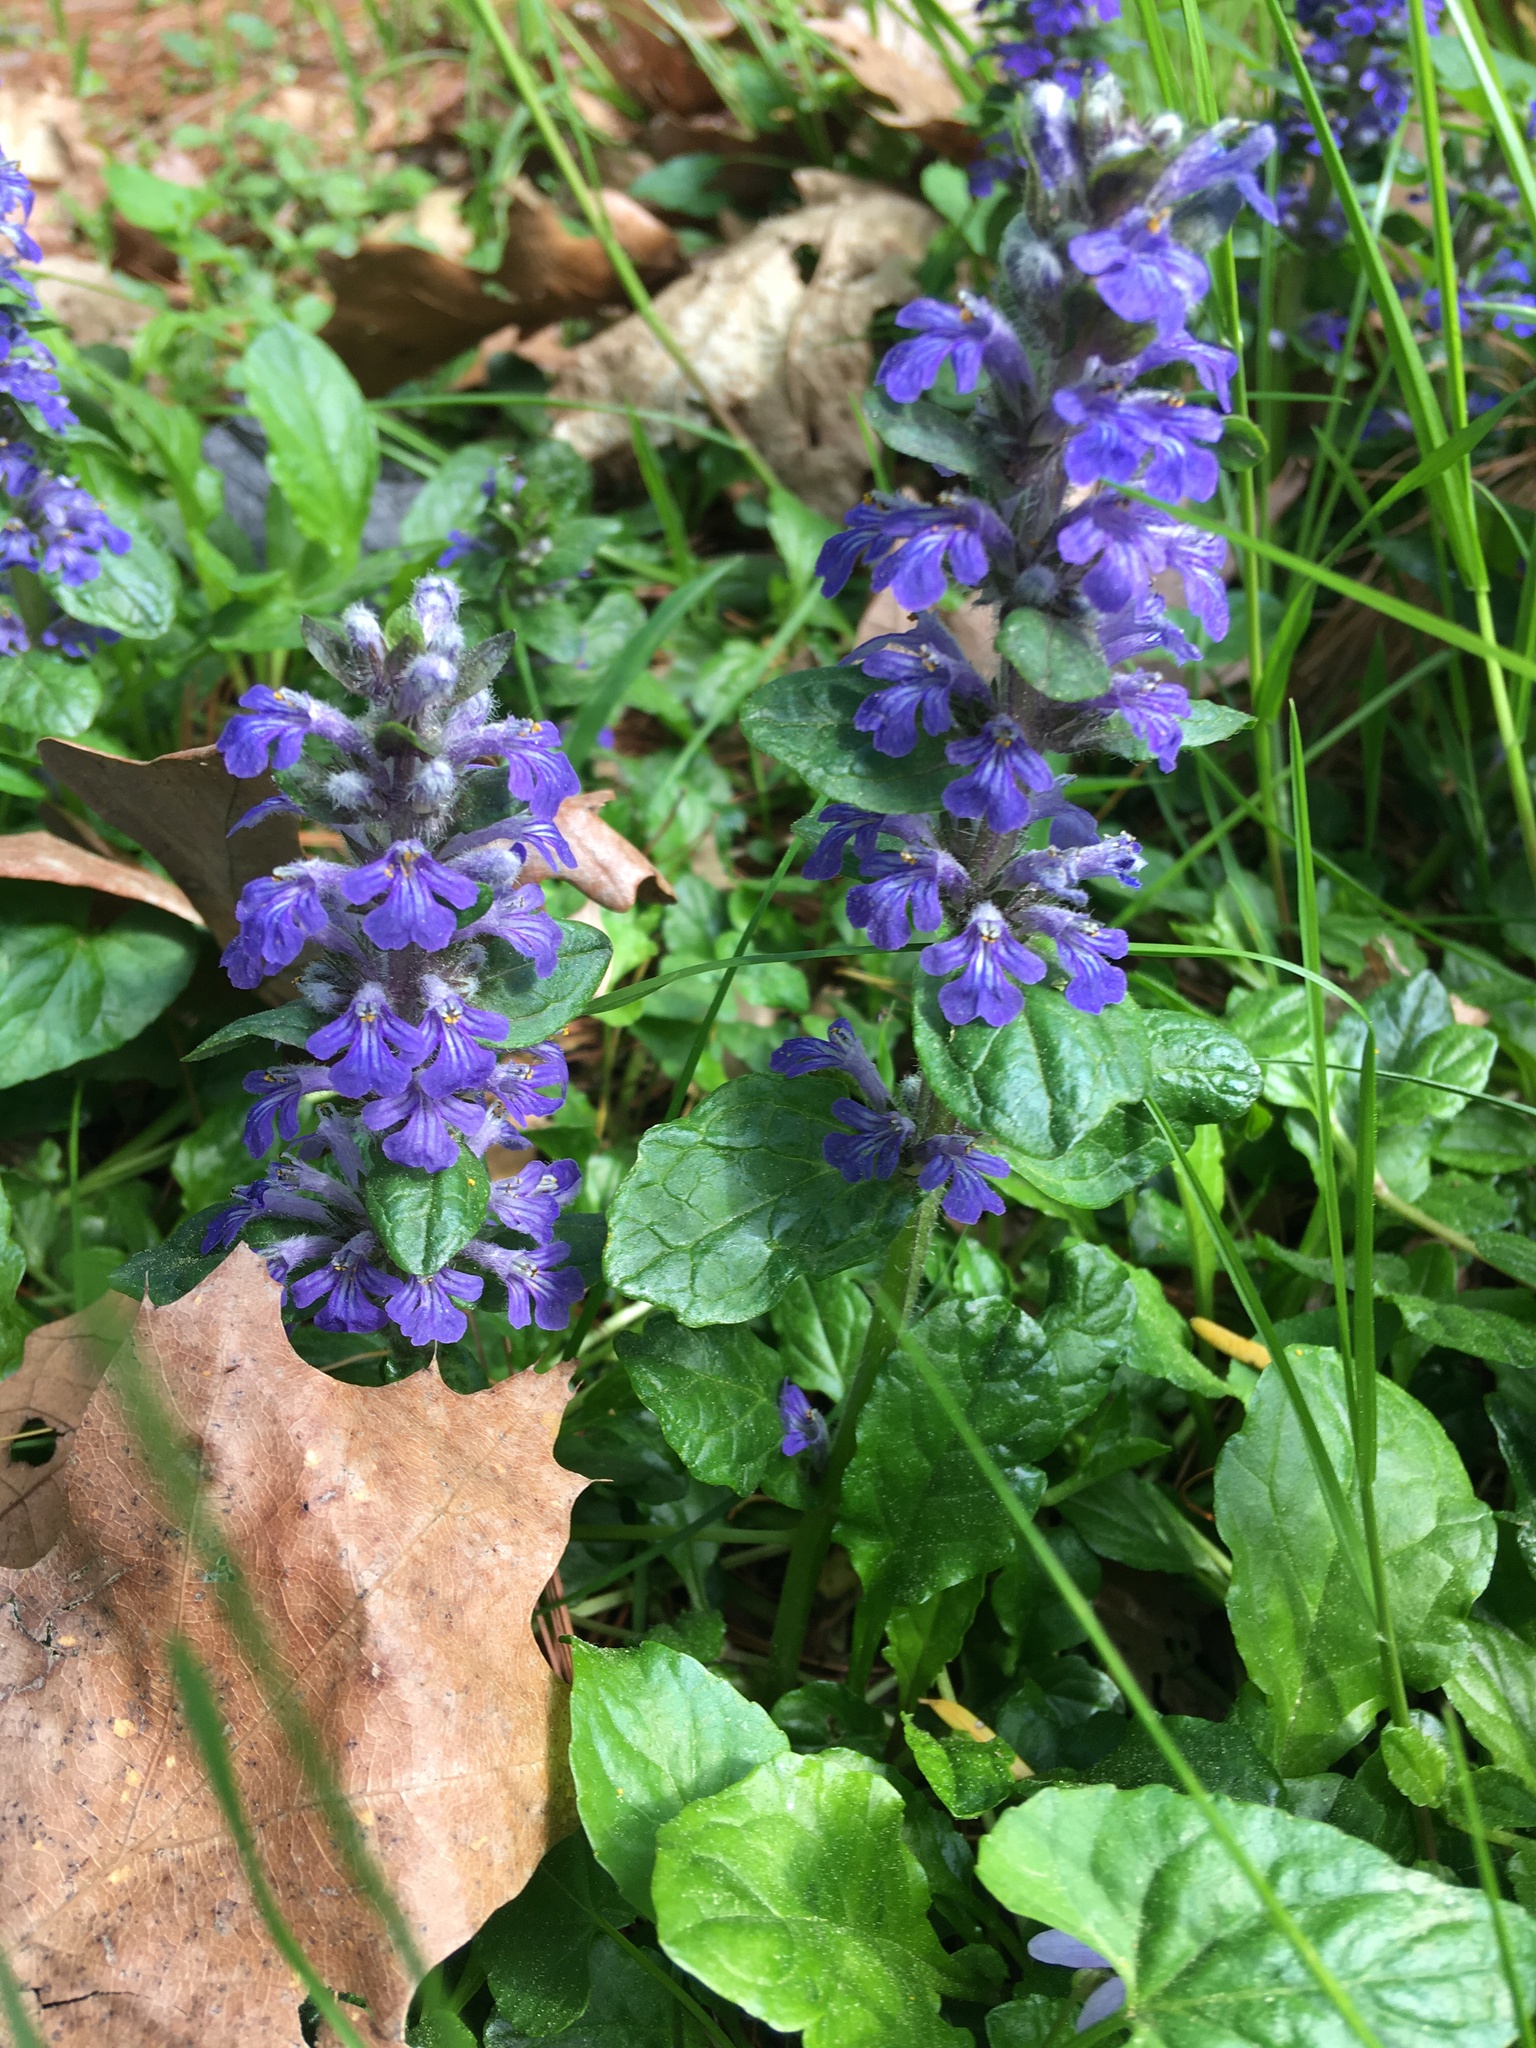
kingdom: Plantae
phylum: Tracheophyta
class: Magnoliopsida
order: Lamiales
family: Lamiaceae
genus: Ajuga
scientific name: Ajuga reptans
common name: Bugle
